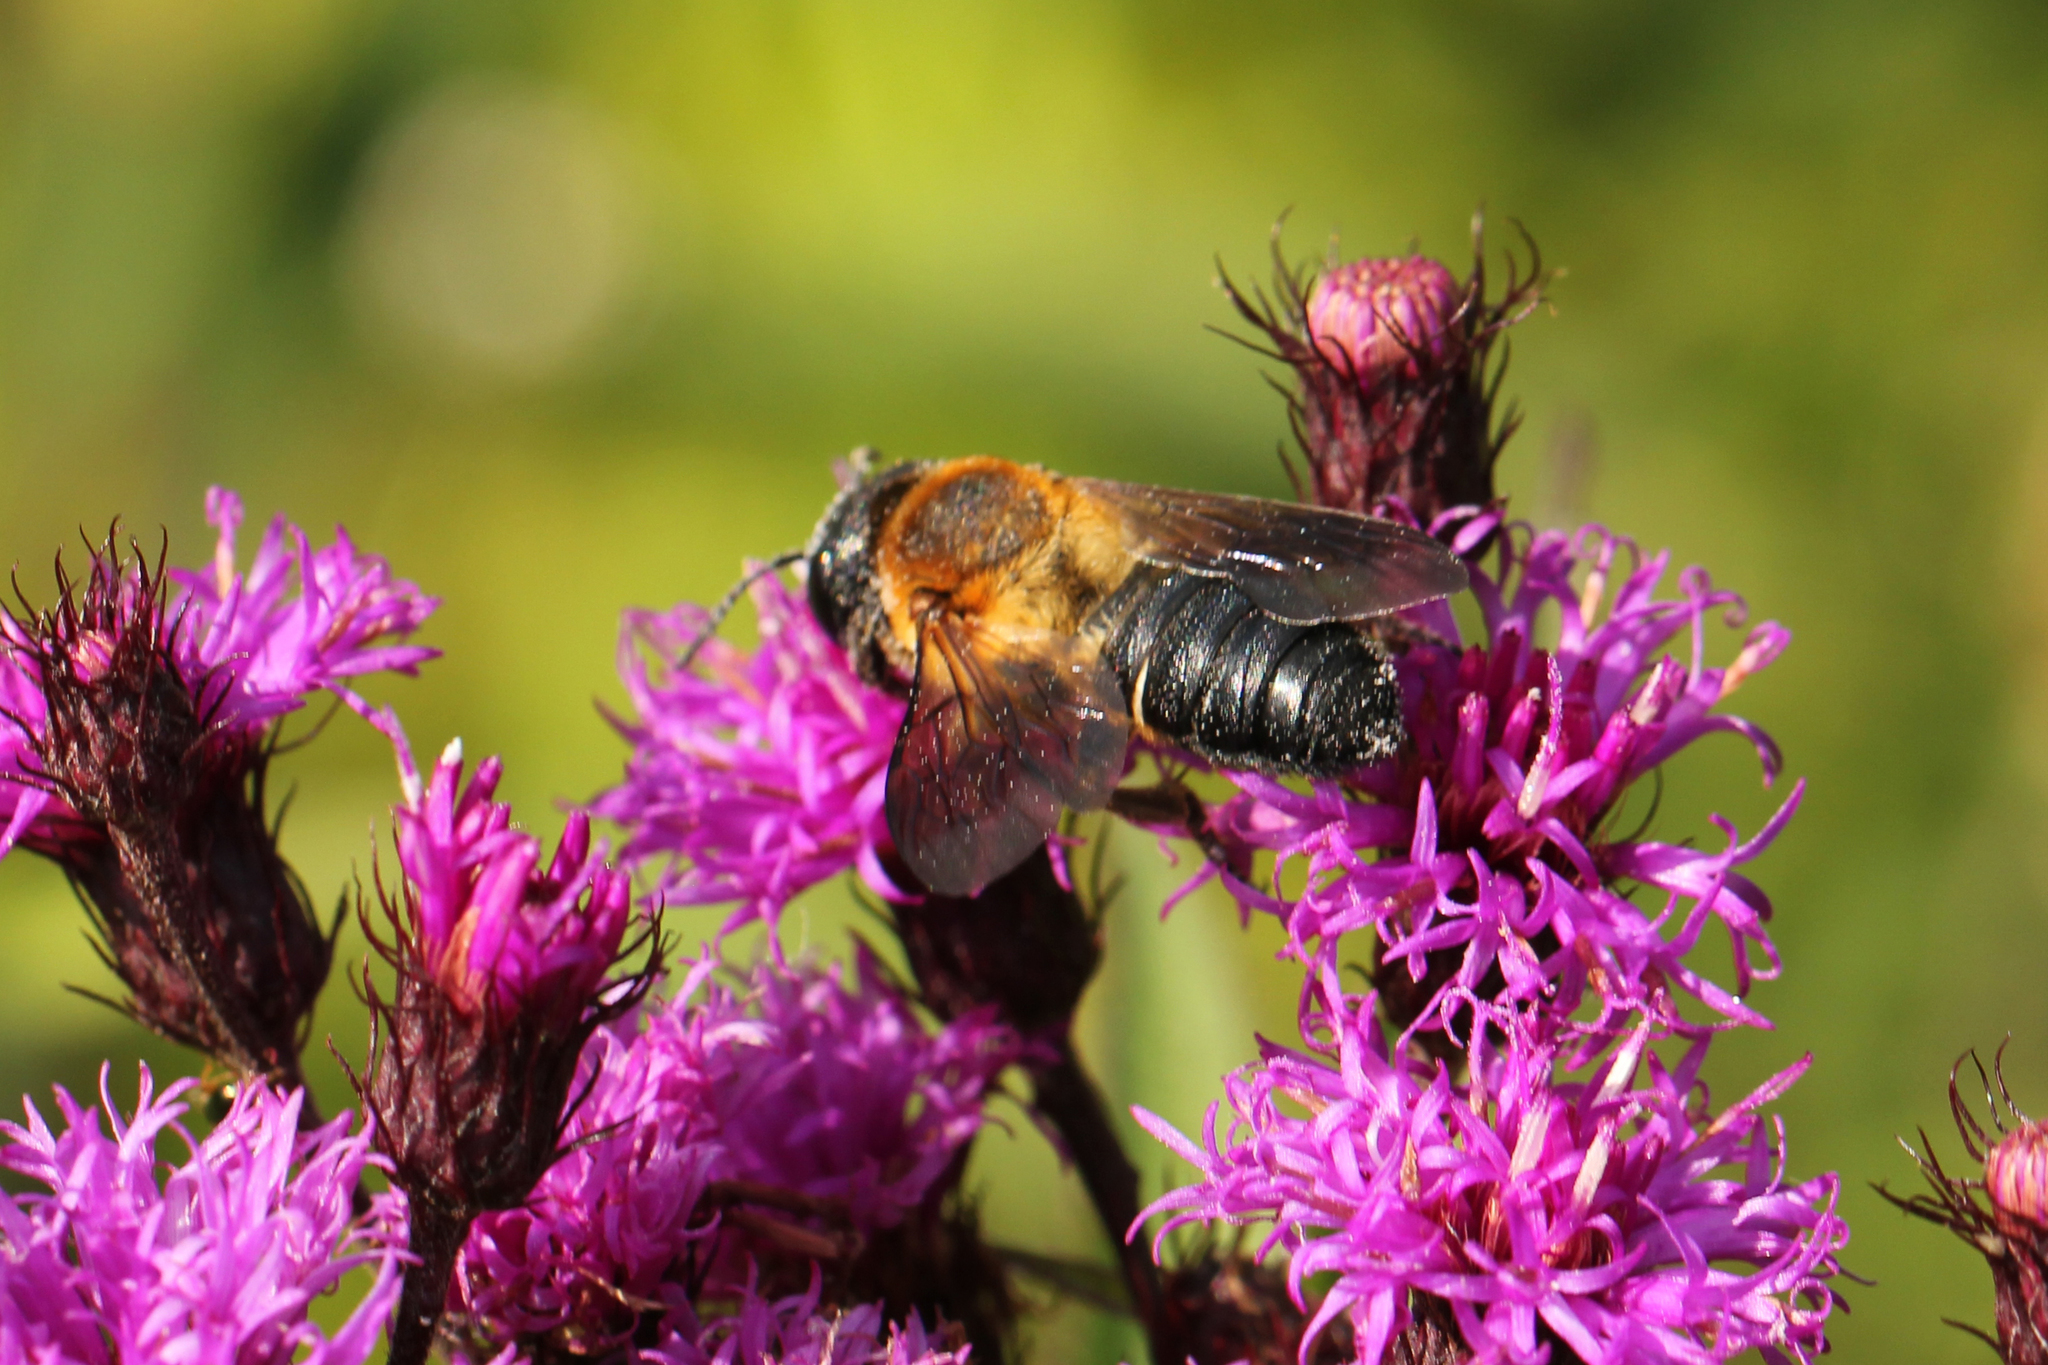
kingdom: Animalia
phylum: Arthropoda
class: Insecta
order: Hymenoptera
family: Megachilidae
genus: Megachile
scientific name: Megachile sculpturalis
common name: Sculptured resin bee
